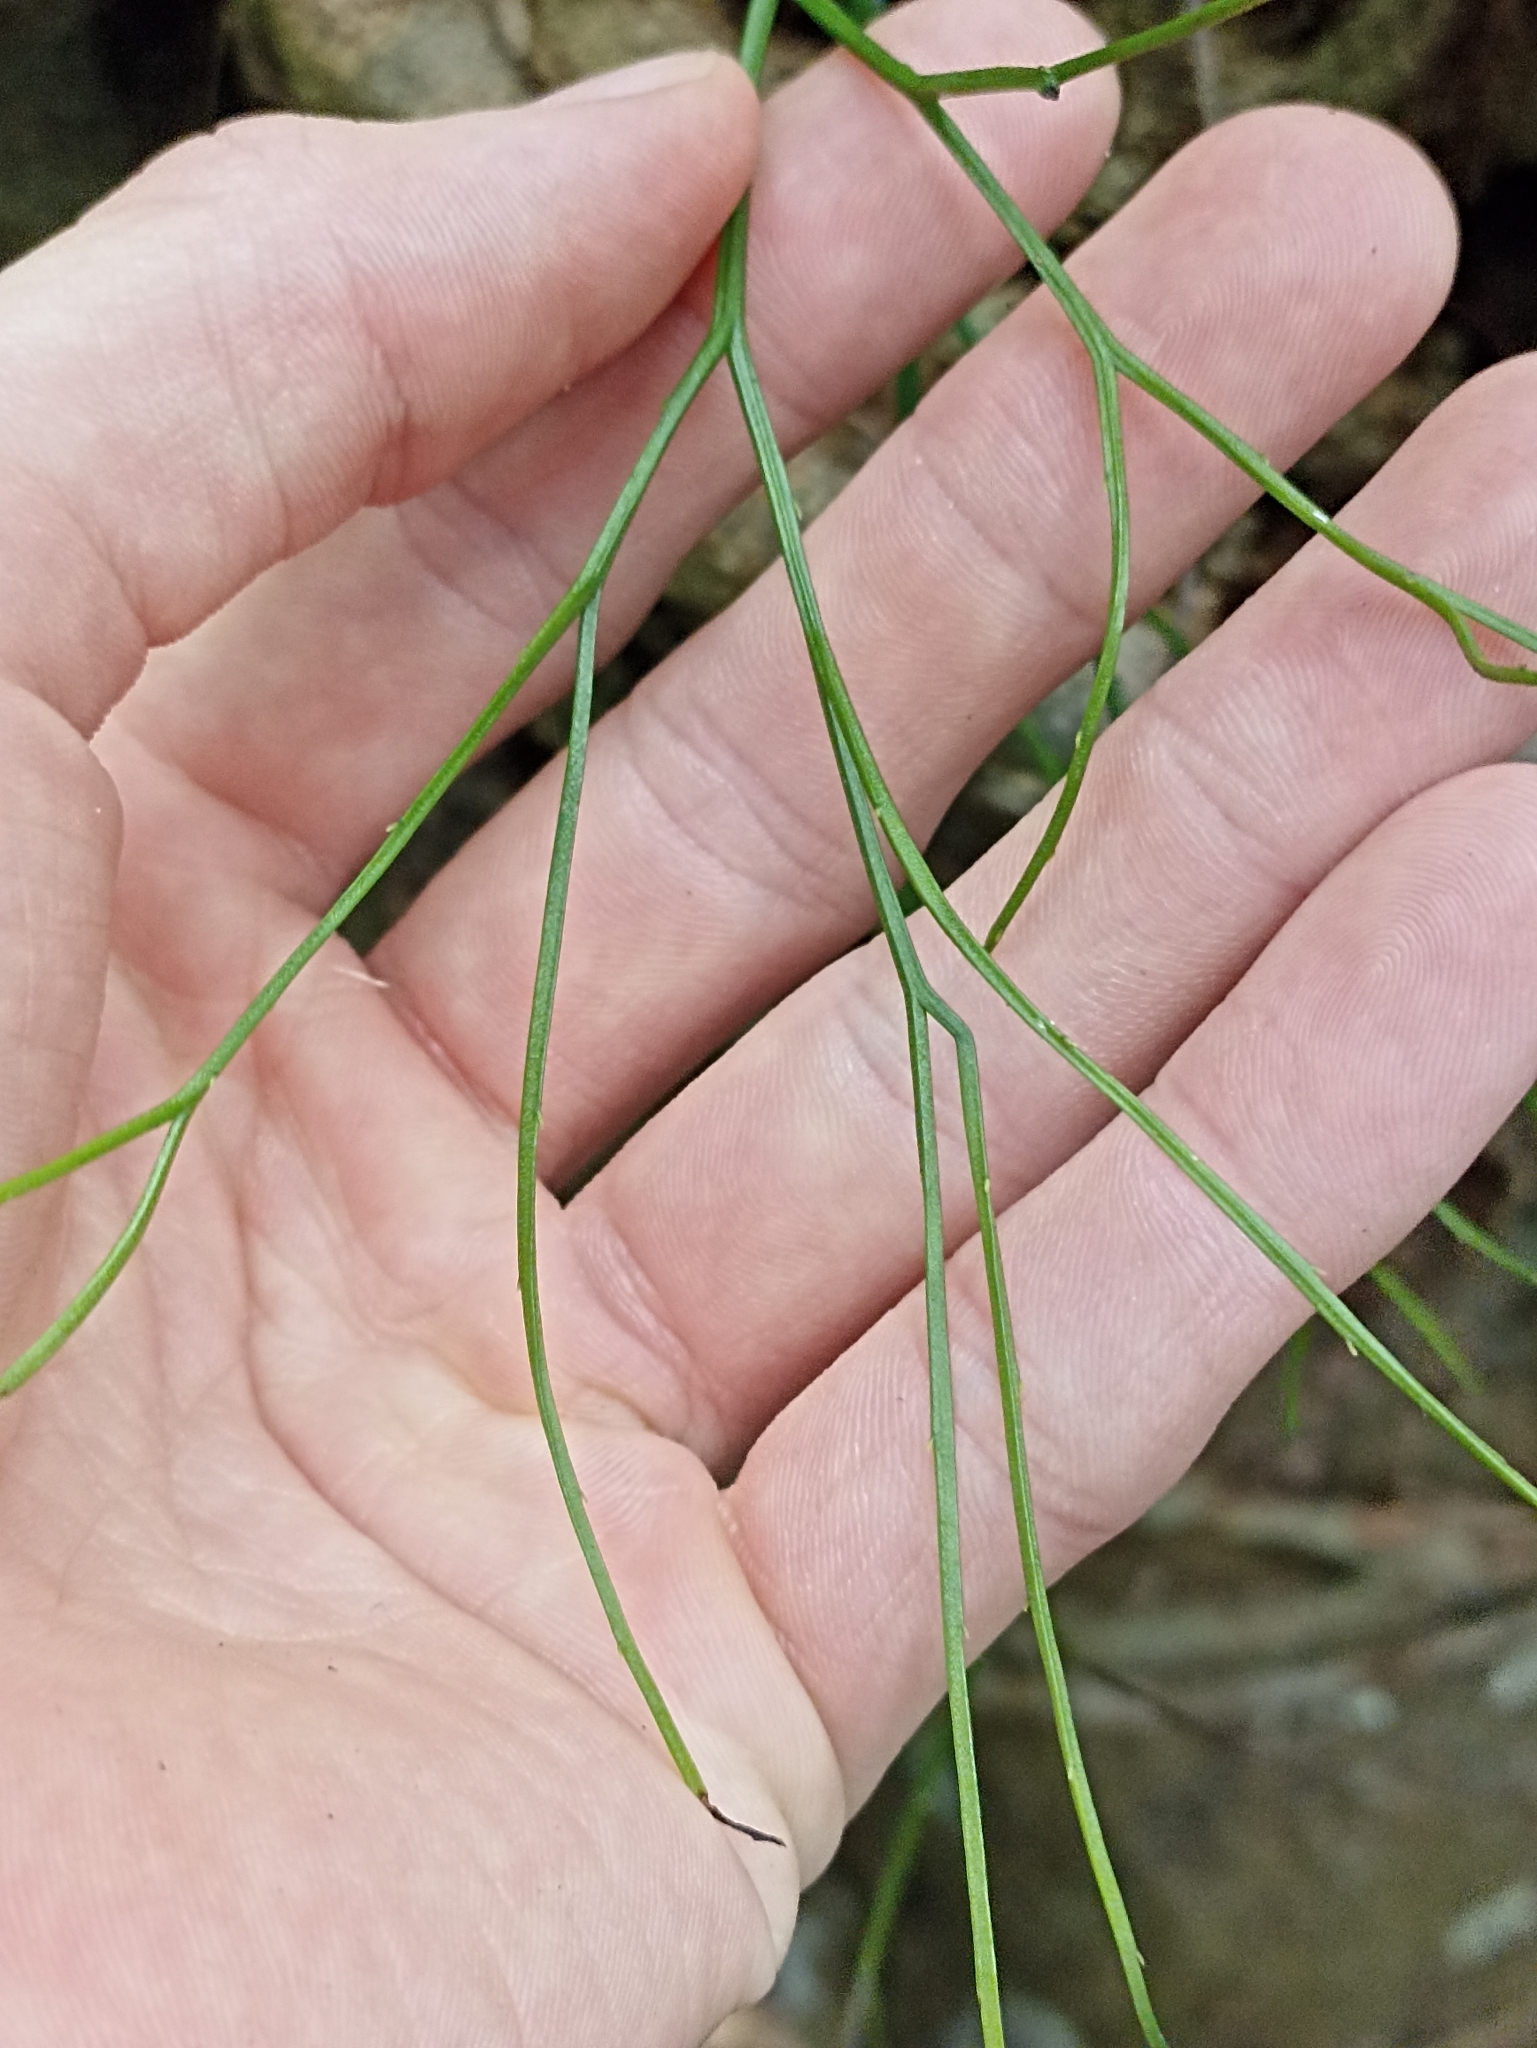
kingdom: Plantae
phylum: Tracheophyta
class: Polypodiopsida
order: Psilotales
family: Psilotaceae
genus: Psilotum
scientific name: Psilotum nudum
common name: Skeleton fork fern
